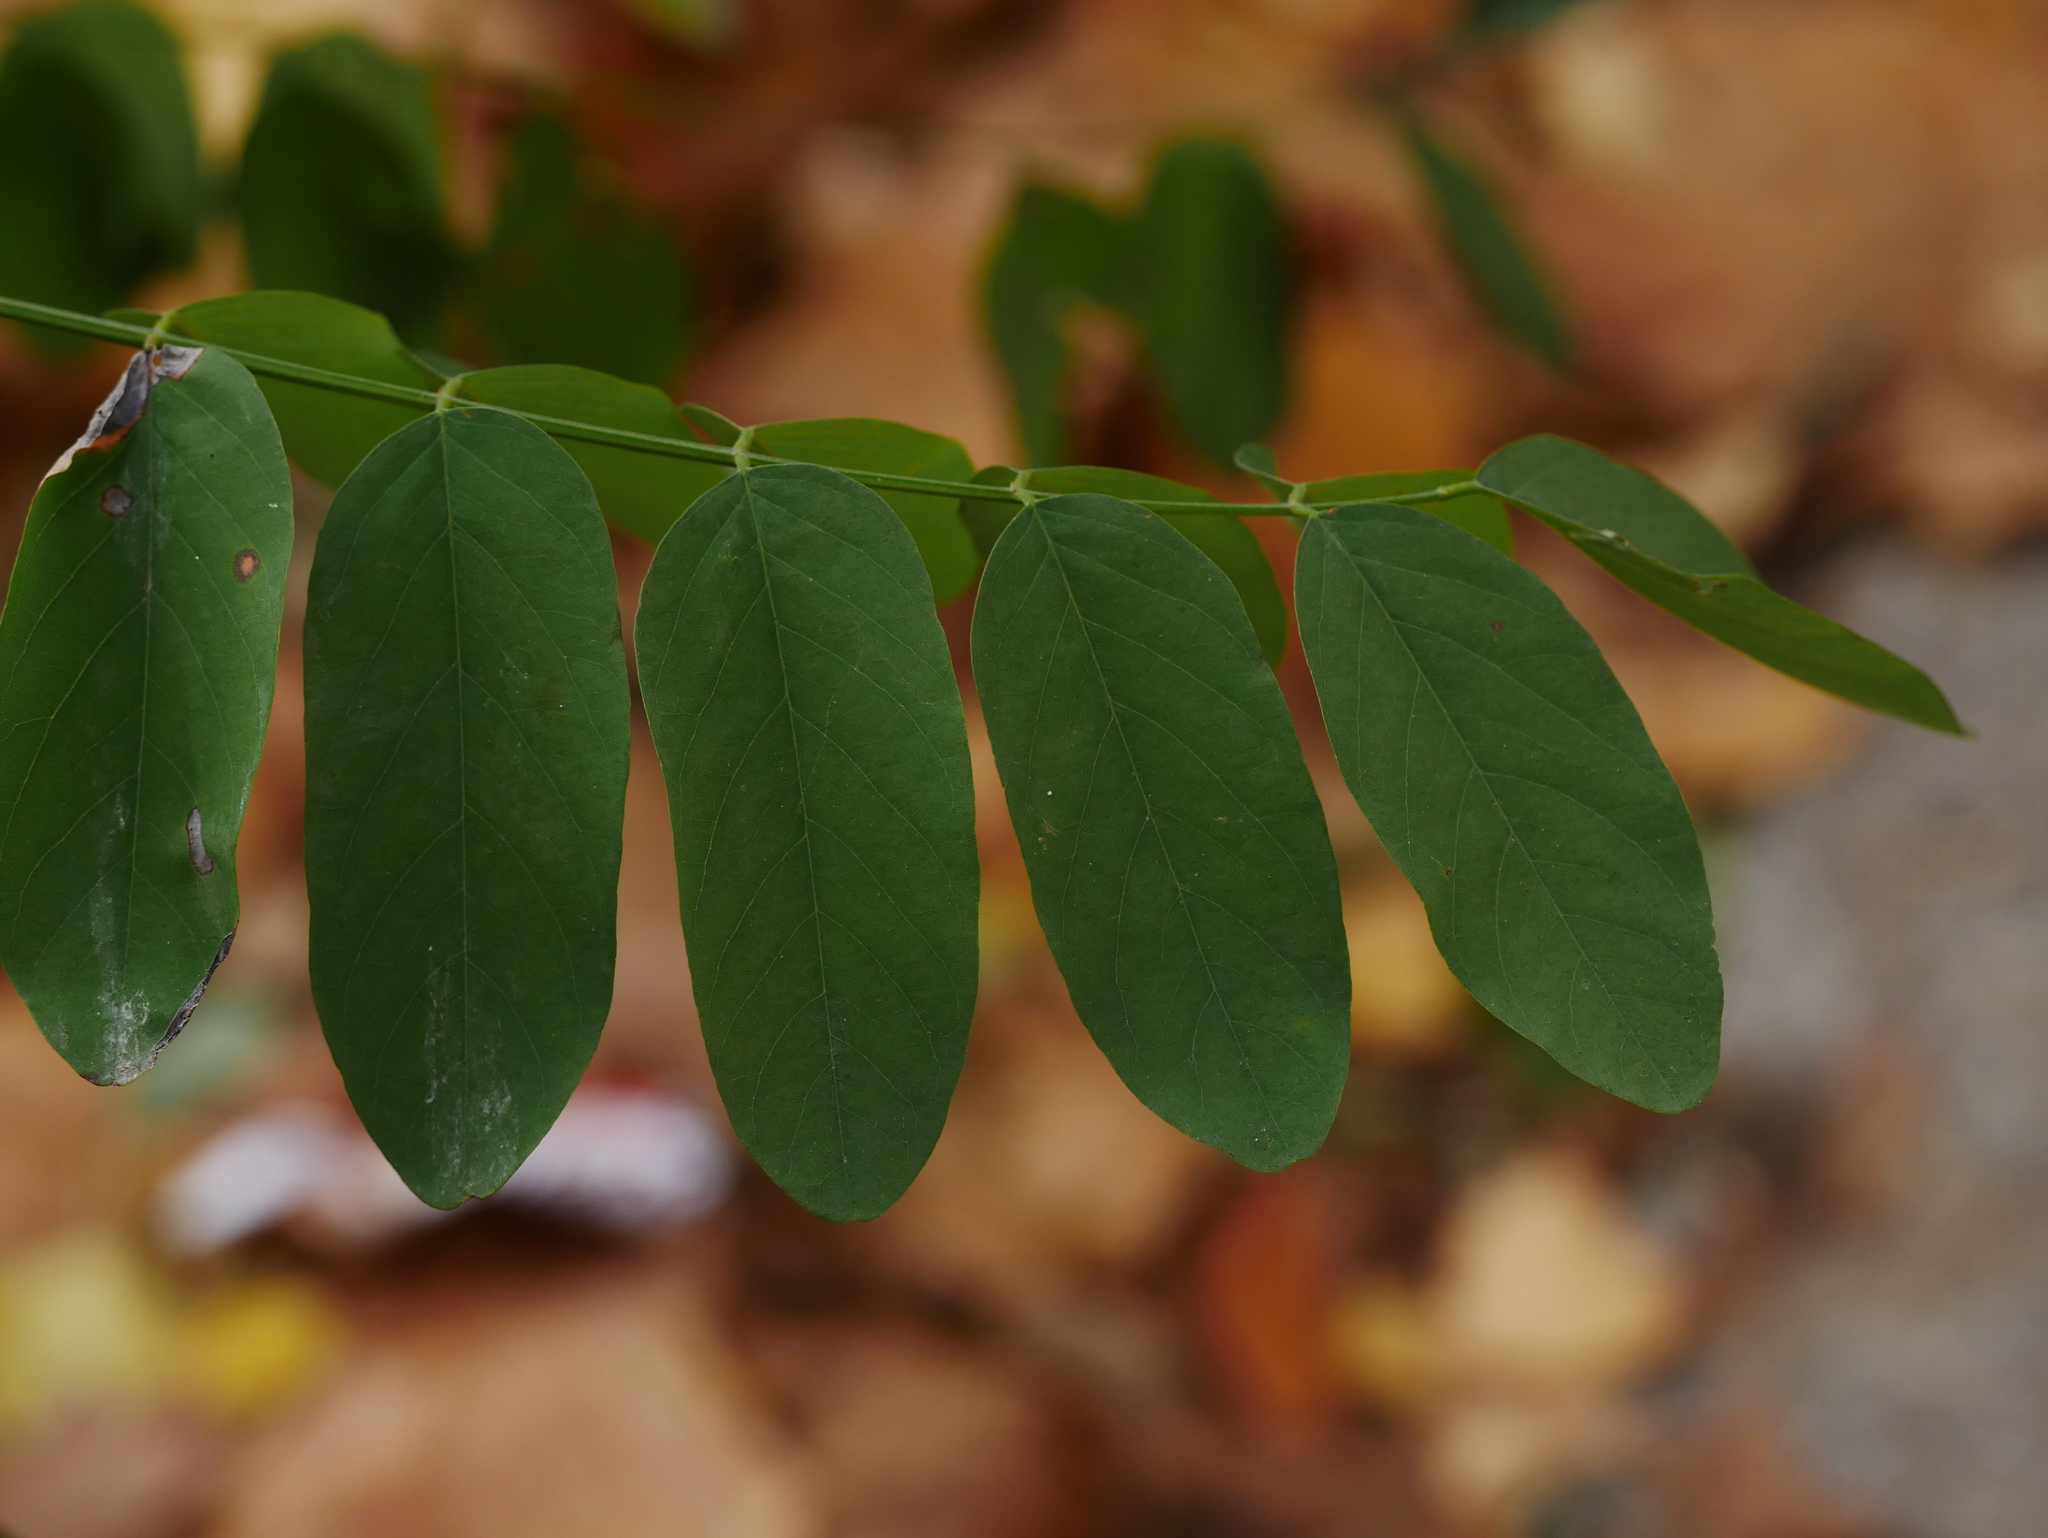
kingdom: Plantae
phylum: Tracheophyta
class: Magnoliopsida
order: Fabales
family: Fabaceae
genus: Robinia
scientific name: Robinia pseudoacacia
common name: Black locust
